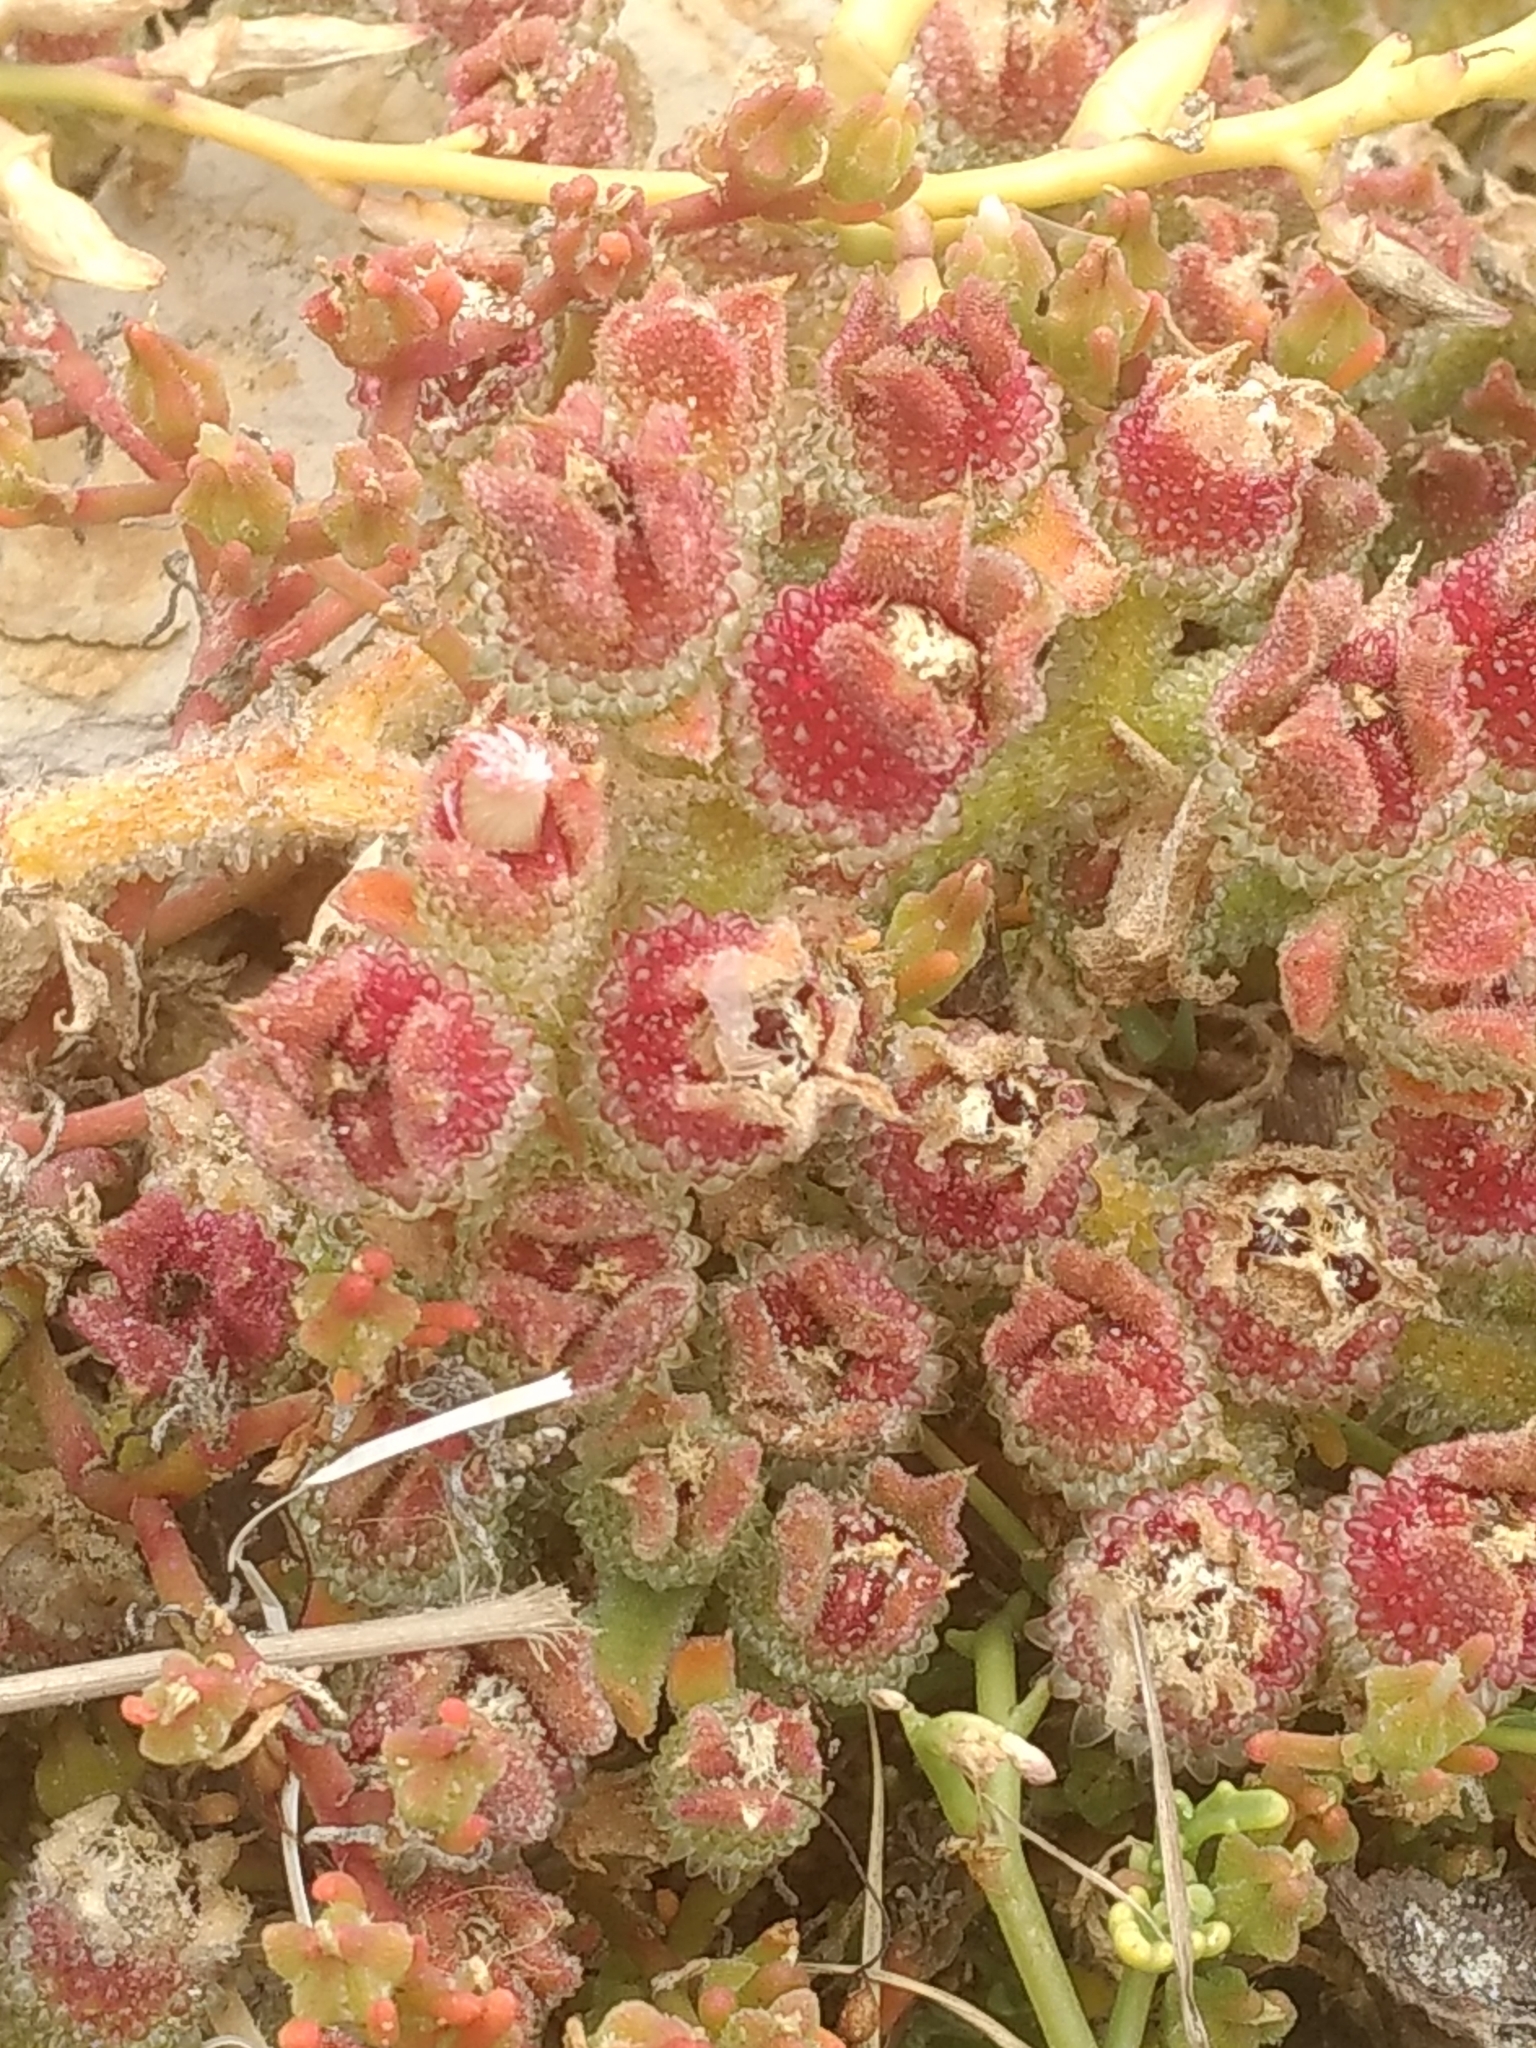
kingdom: Plantae
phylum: Tracheophyta
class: Magnoliopsida
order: Caryophyllales
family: Aizoaceae
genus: Mesembryanthemum
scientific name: Mesembryanthemum crystallinum
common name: Common iceplant
